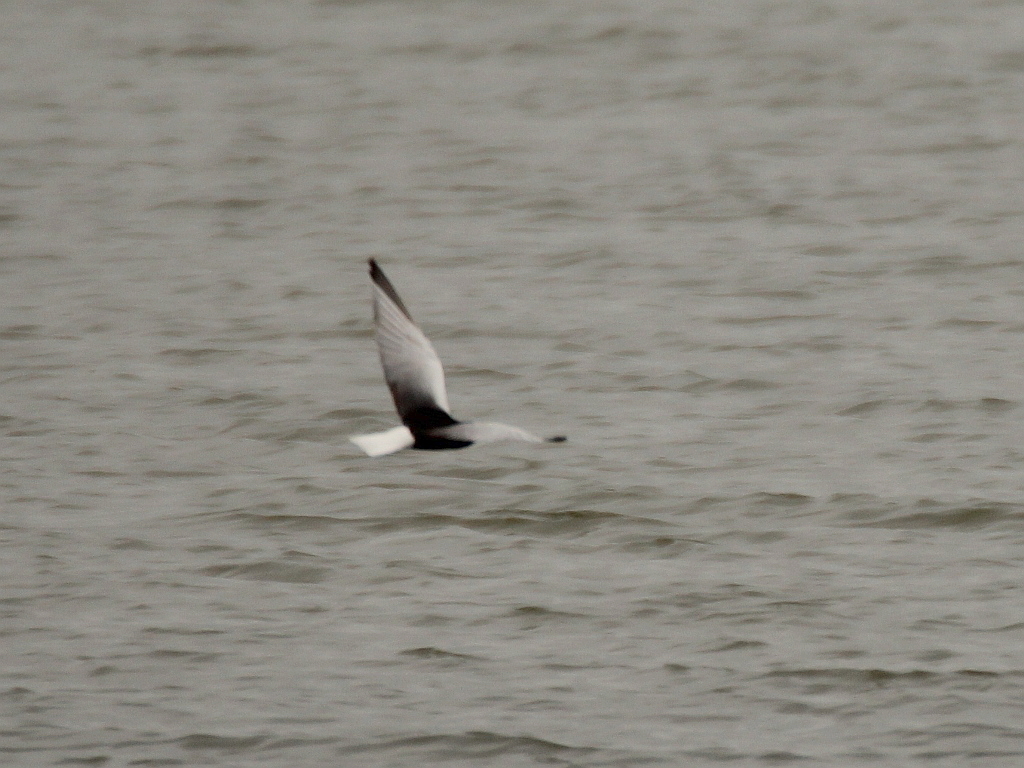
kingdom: Animalia
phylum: Chordata
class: Aves
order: Charadriiformes
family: Laridae
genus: Chlidonias
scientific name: Chlidonias leucopterus
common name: White-winged tern
